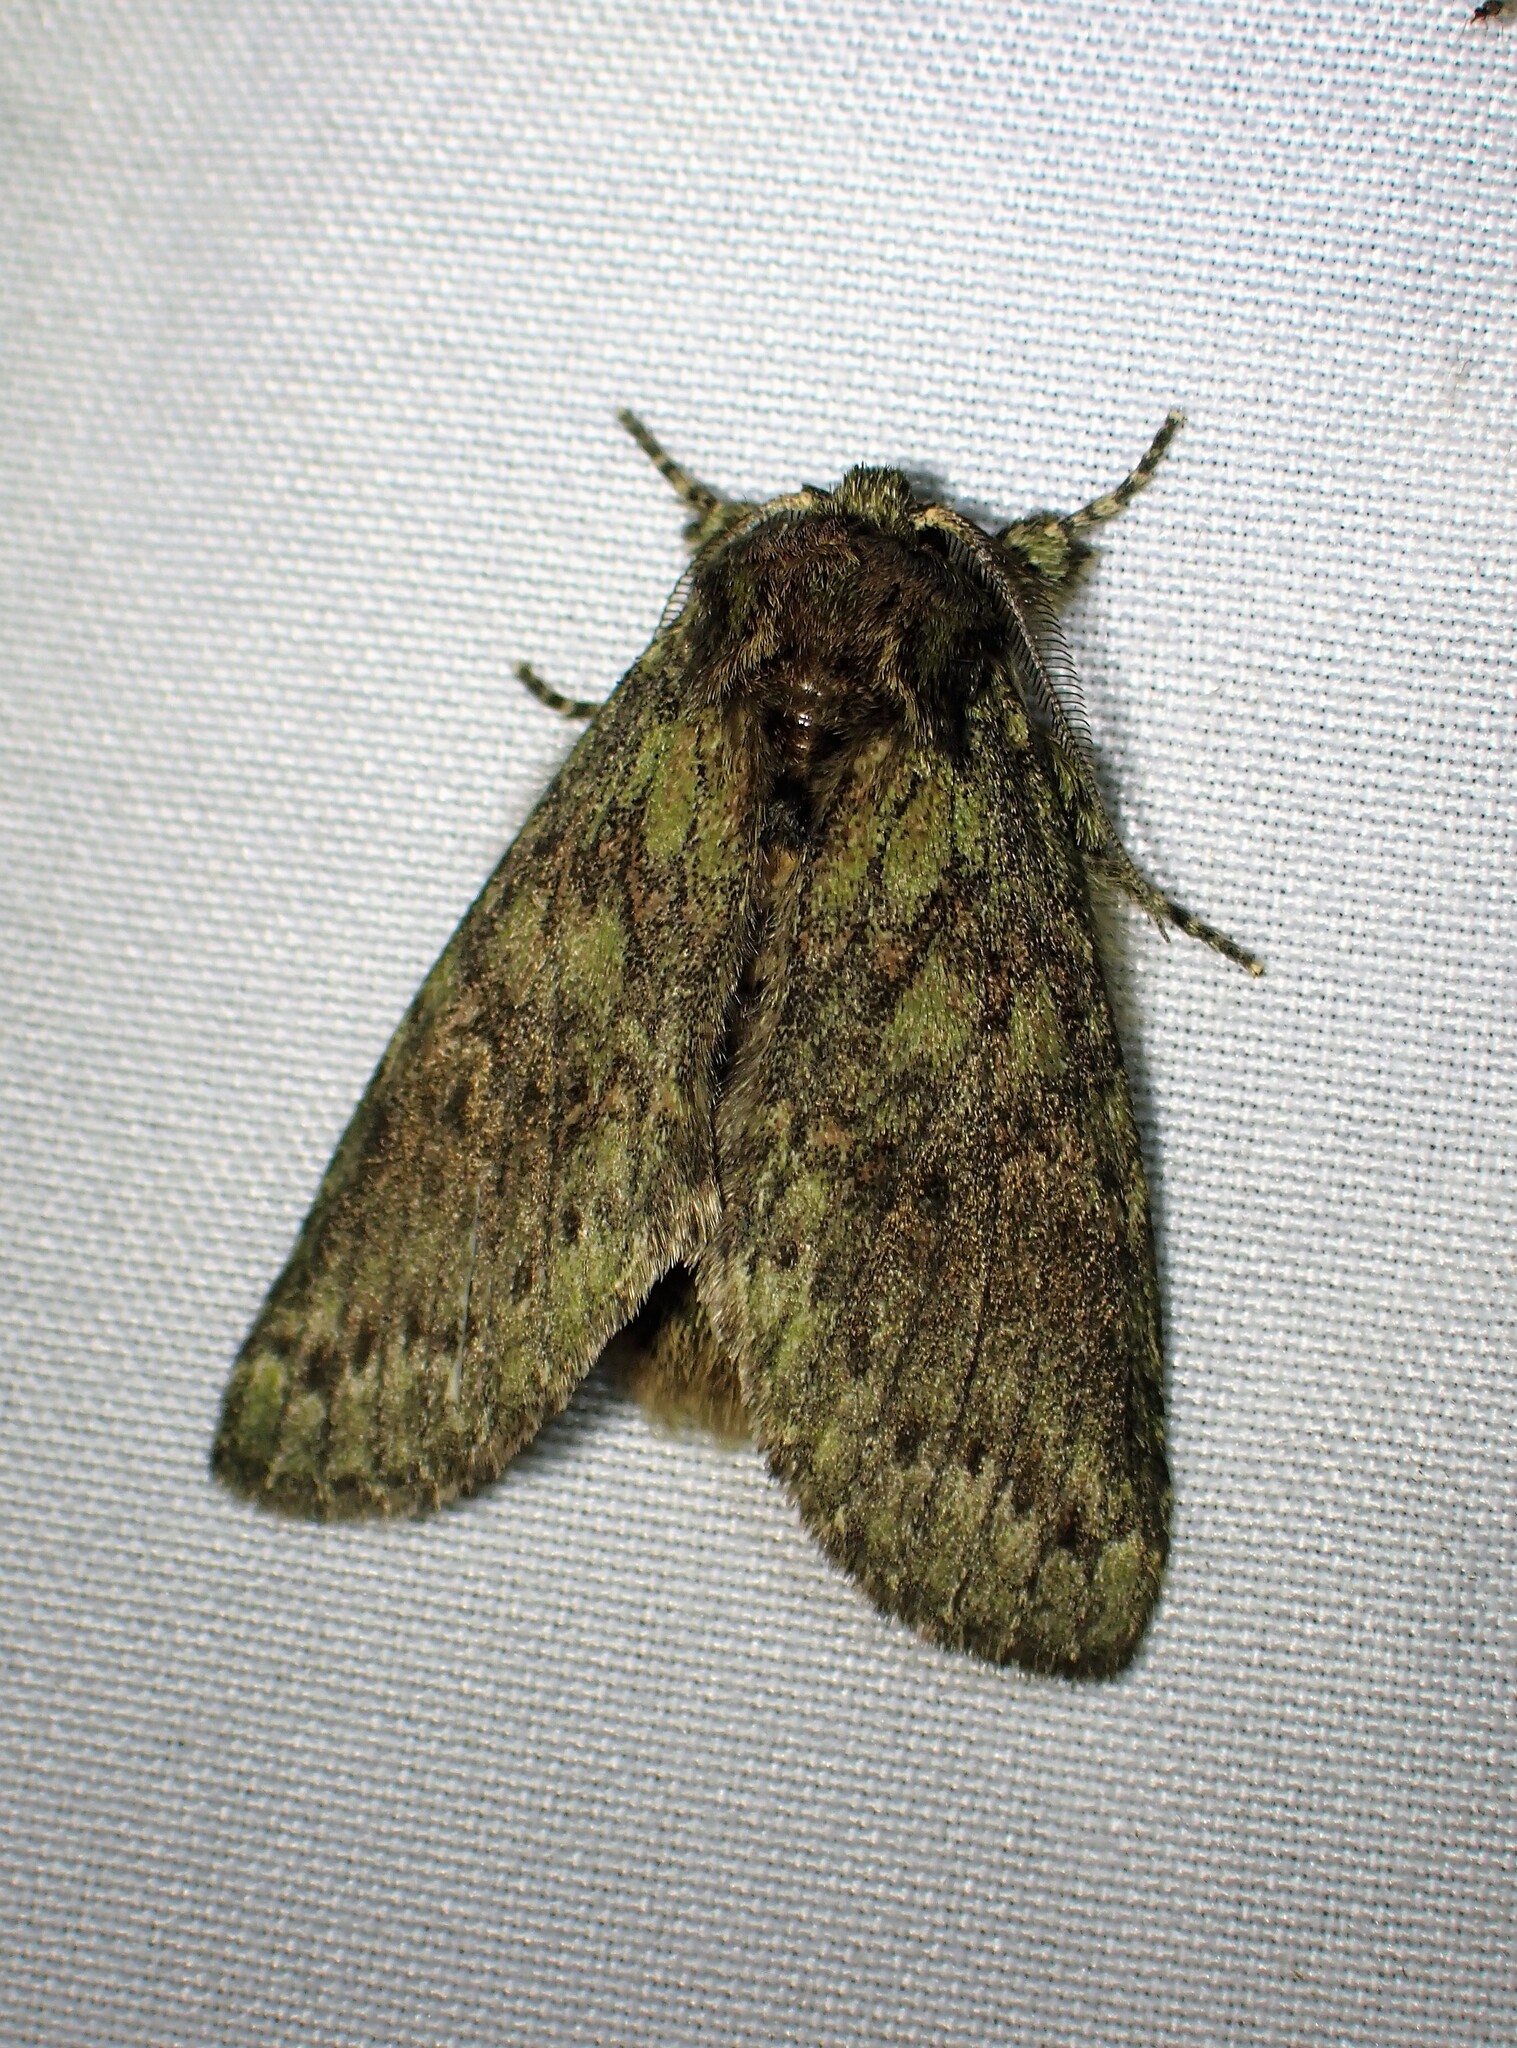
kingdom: Animalia
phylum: Arthropoda
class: Insecta
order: Lepidoptera
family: Notodontidae
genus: Disphragis
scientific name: Disphragis Cecrita biundata
